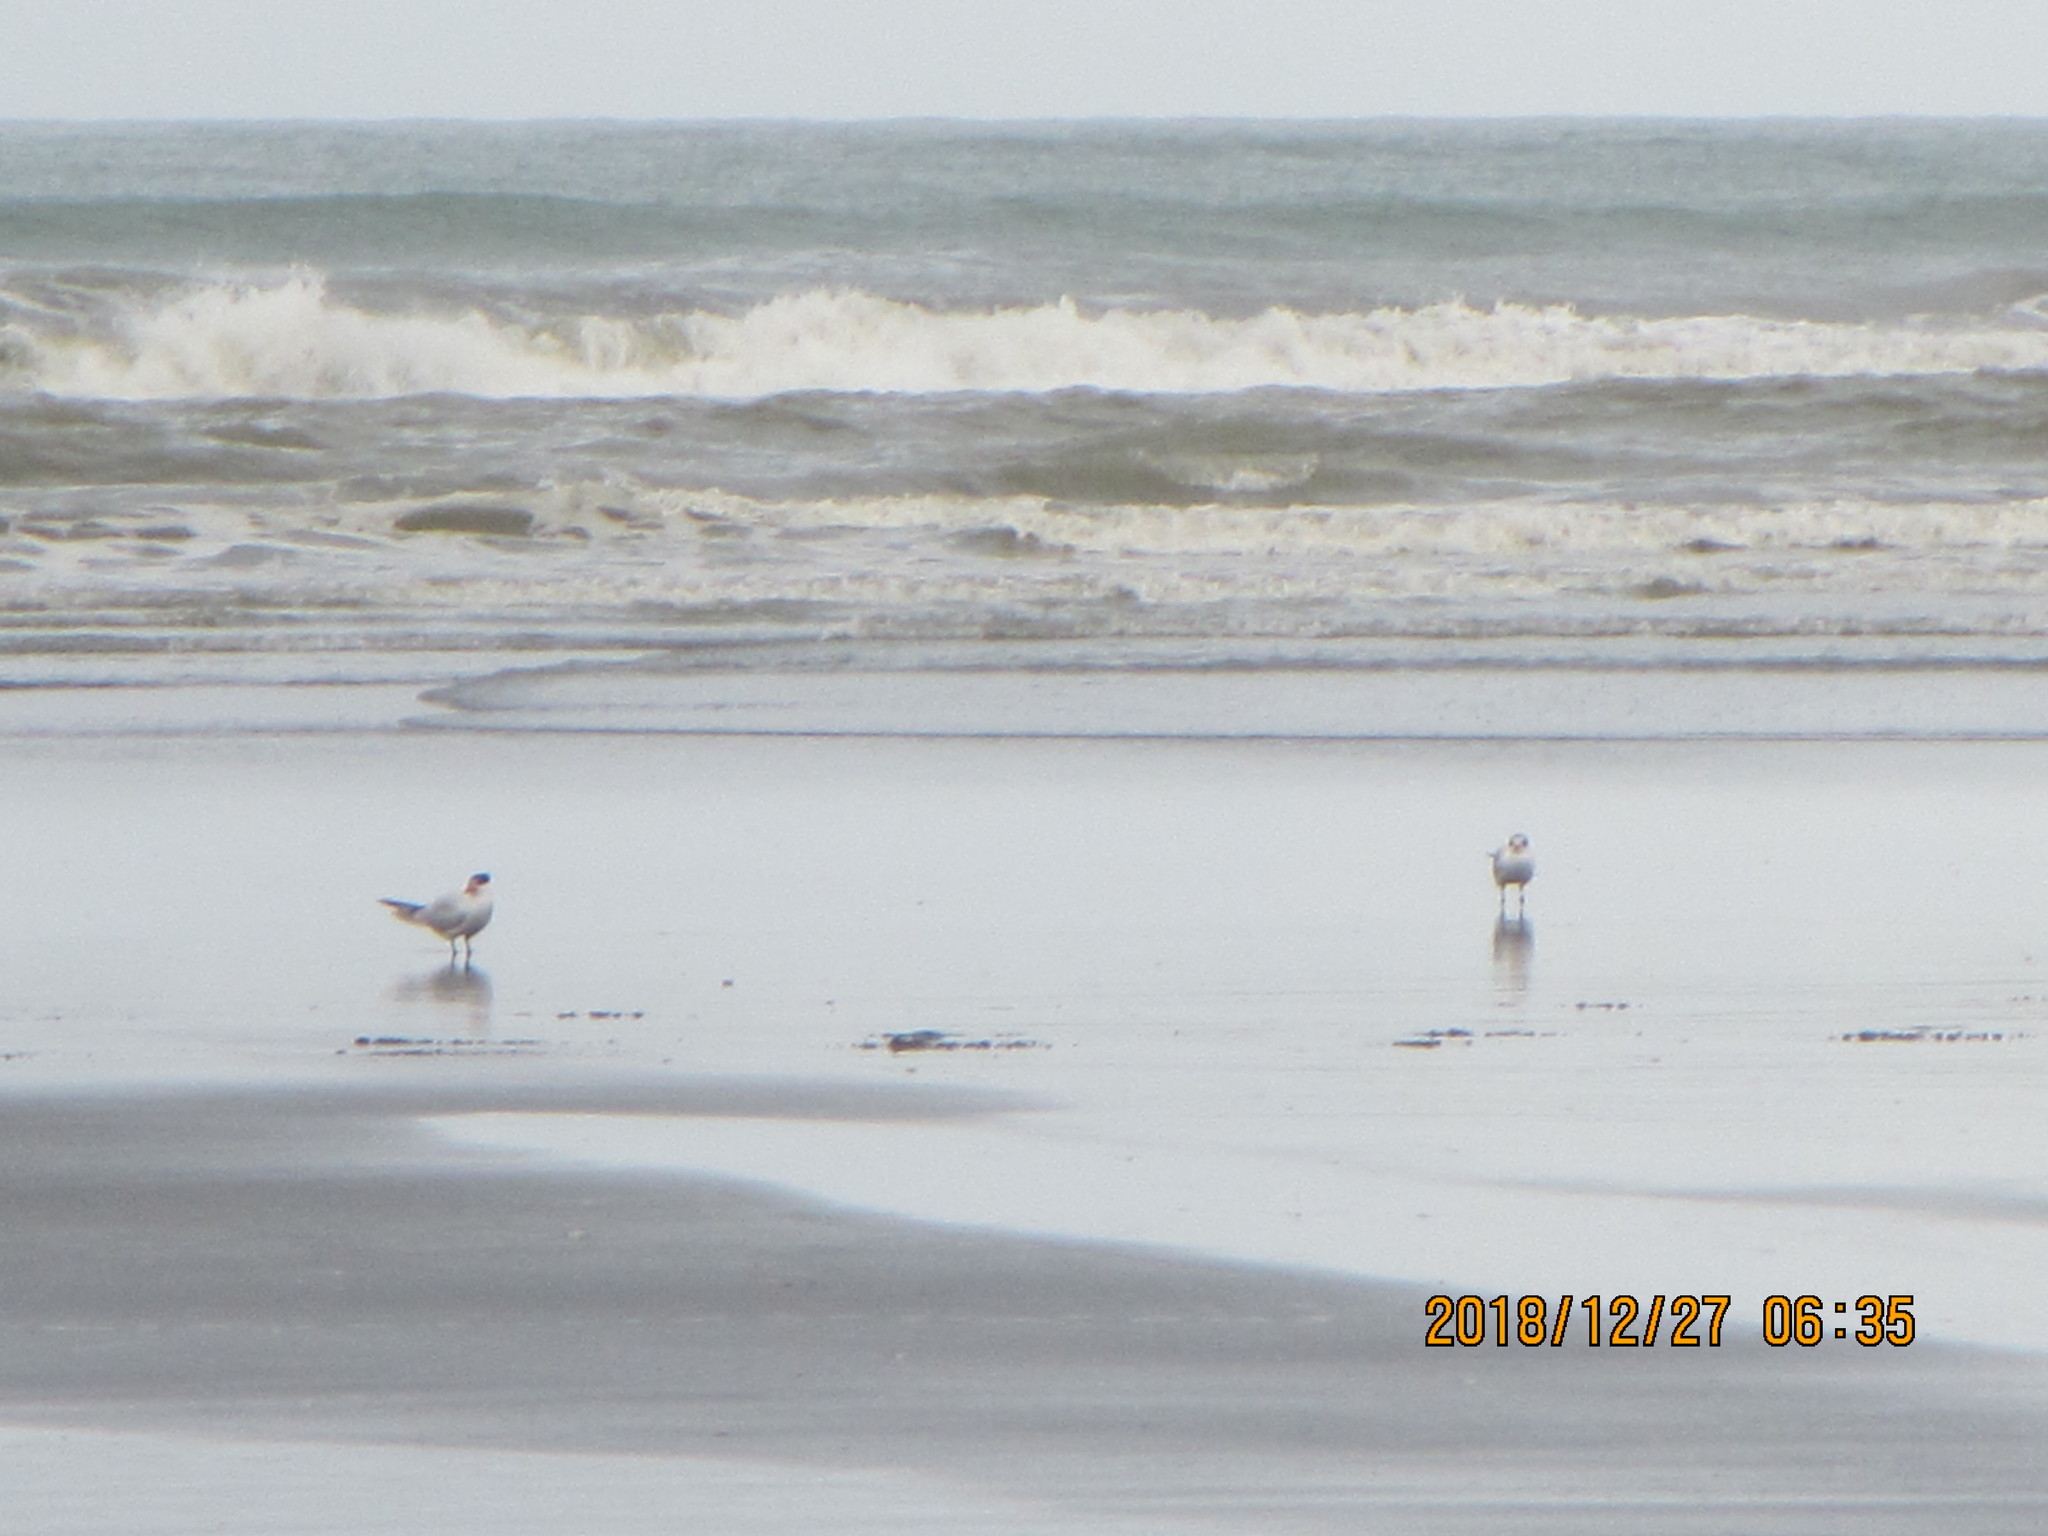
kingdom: Animalia
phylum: Chordata
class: Aves
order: Charadriiformes
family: Laridae
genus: Hydroprogne
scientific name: Hydroprogne caspia
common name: Caspian tern
